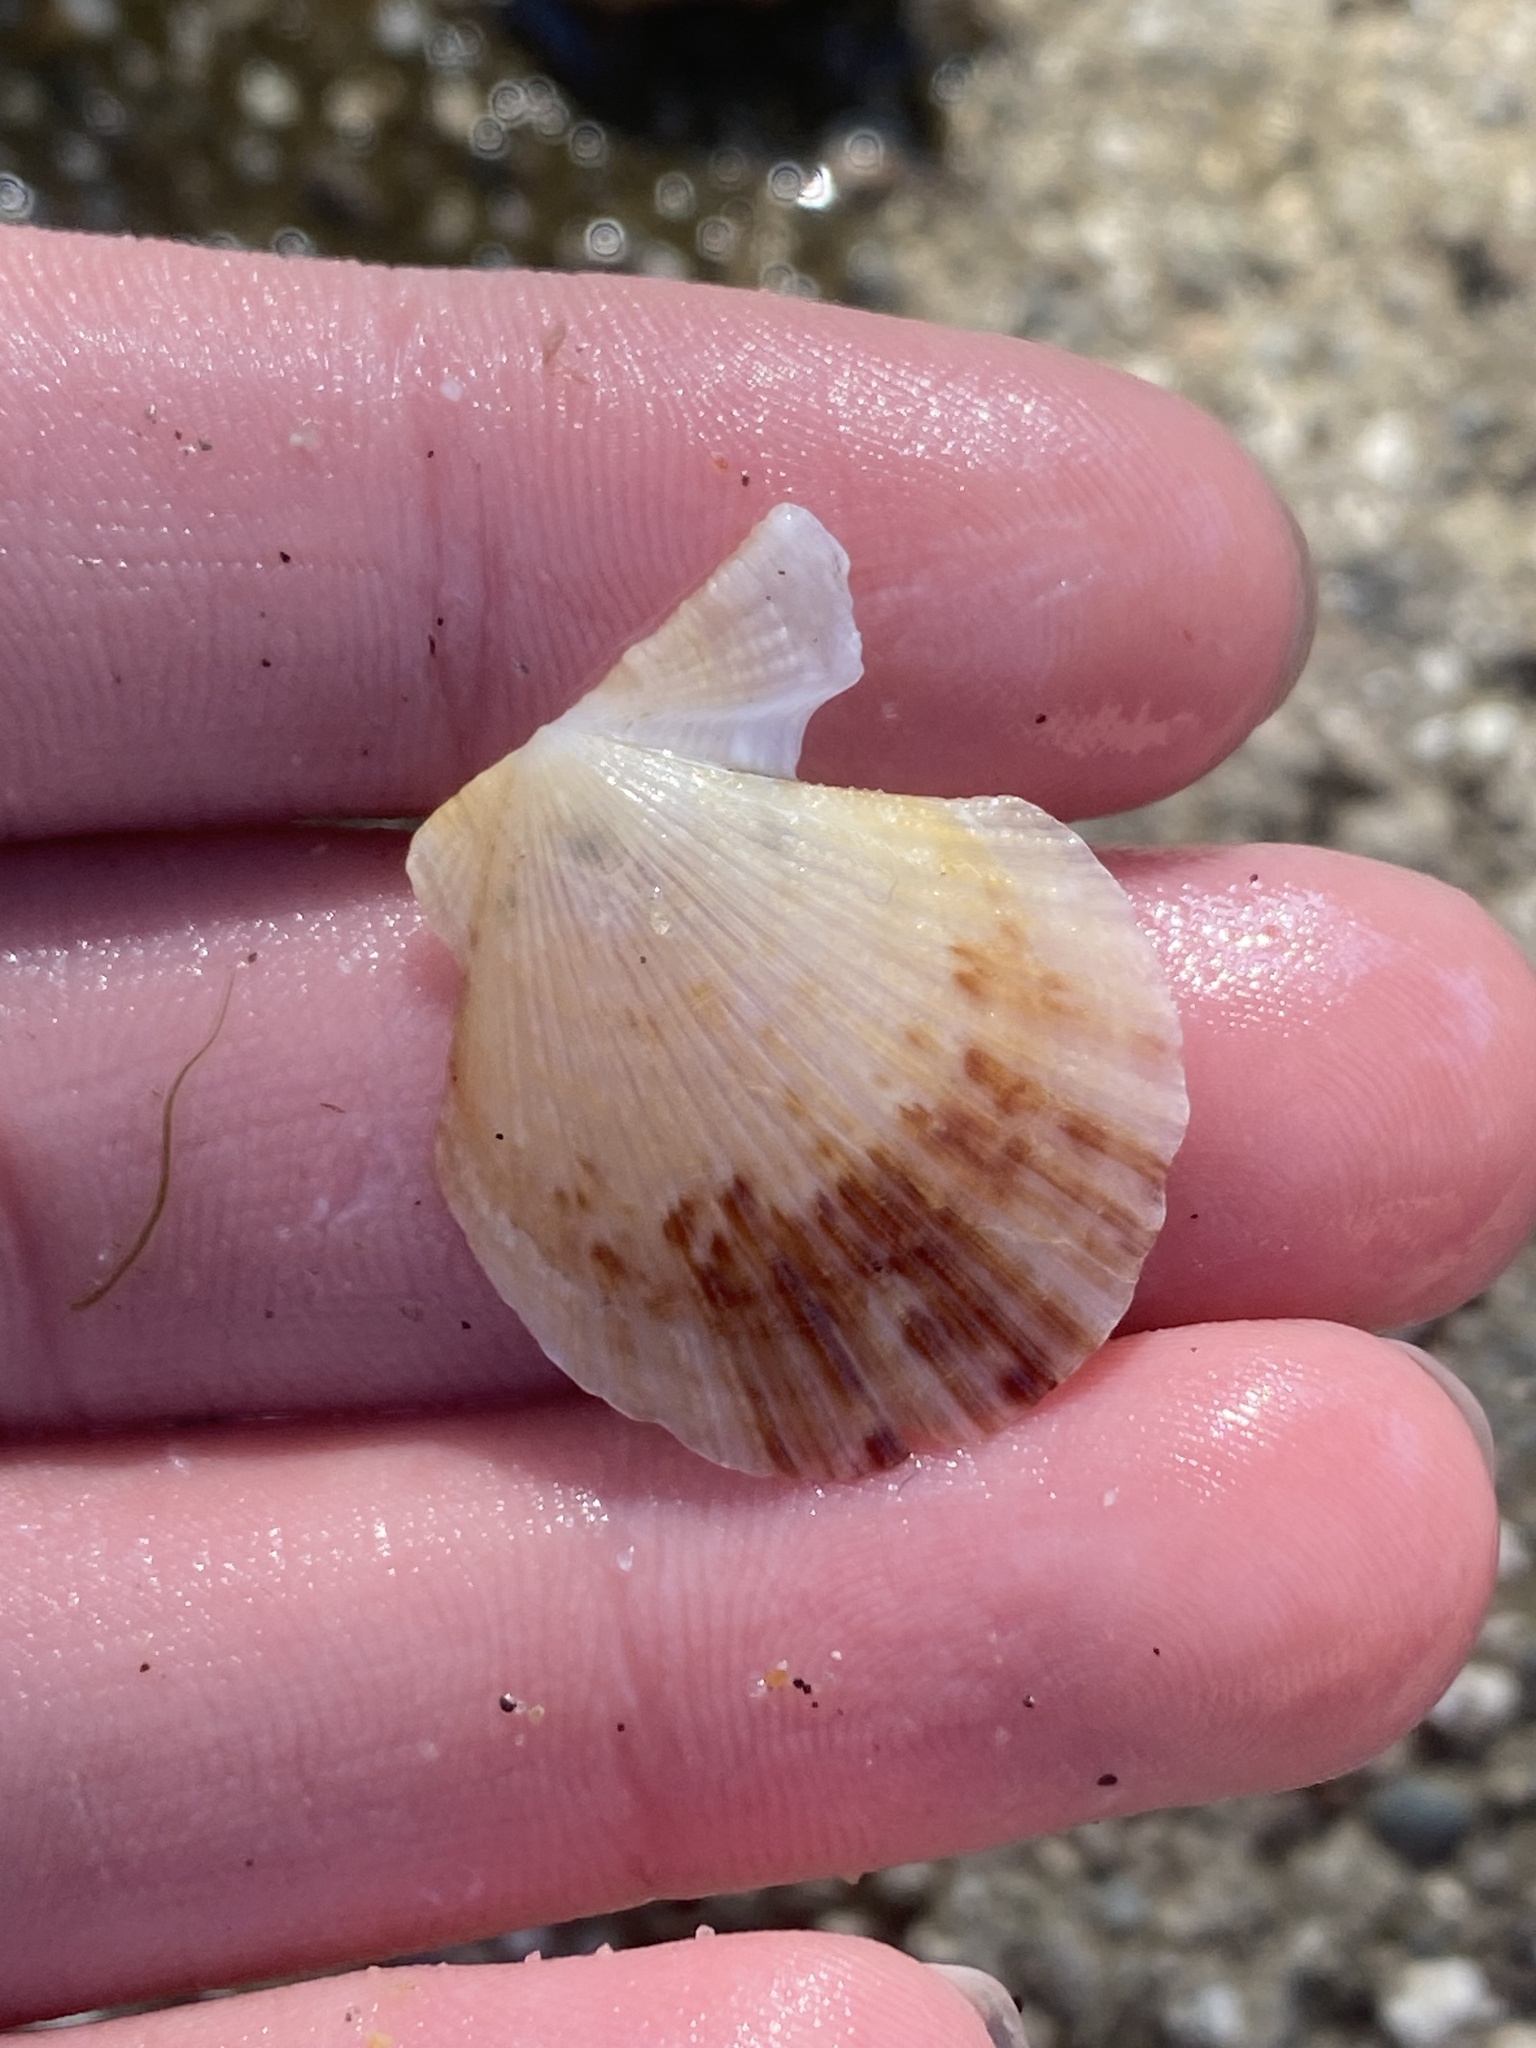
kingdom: Animalia
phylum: Mollusca
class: Bivalvia
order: Pectinida
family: Pectinidae
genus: Crassadoma
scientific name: Crassadoma gigantea
